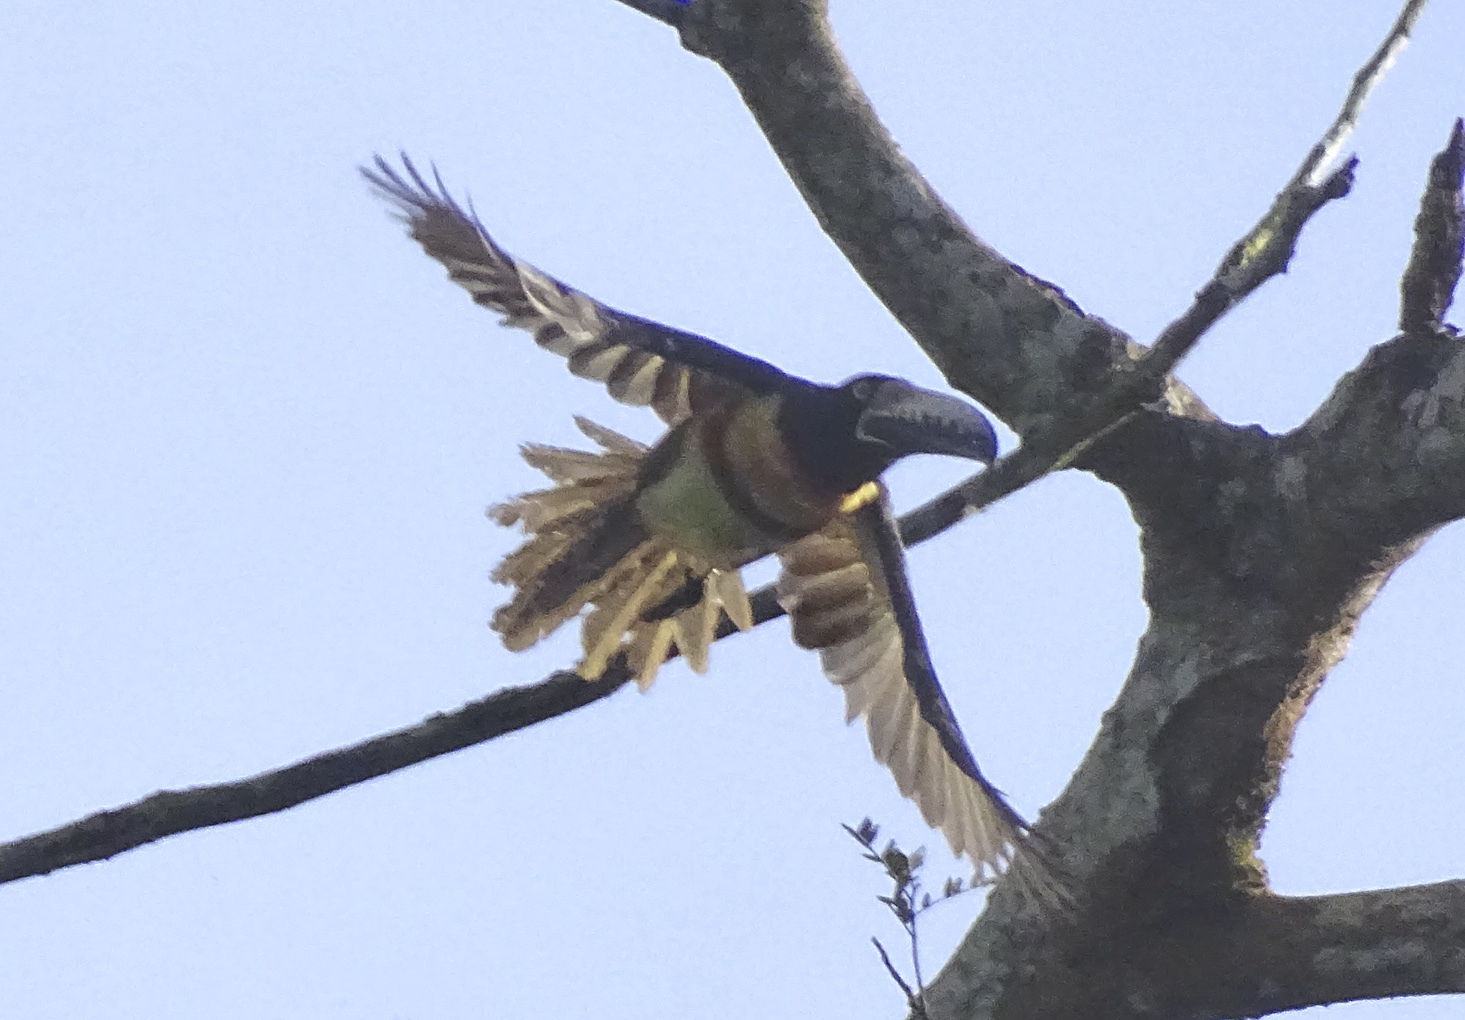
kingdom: Animalia
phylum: Chordata
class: Aves
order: Piciformes
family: Ramphastidae
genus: Pteroglossus
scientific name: Pteroglossus torquatus
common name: Collared aracari
